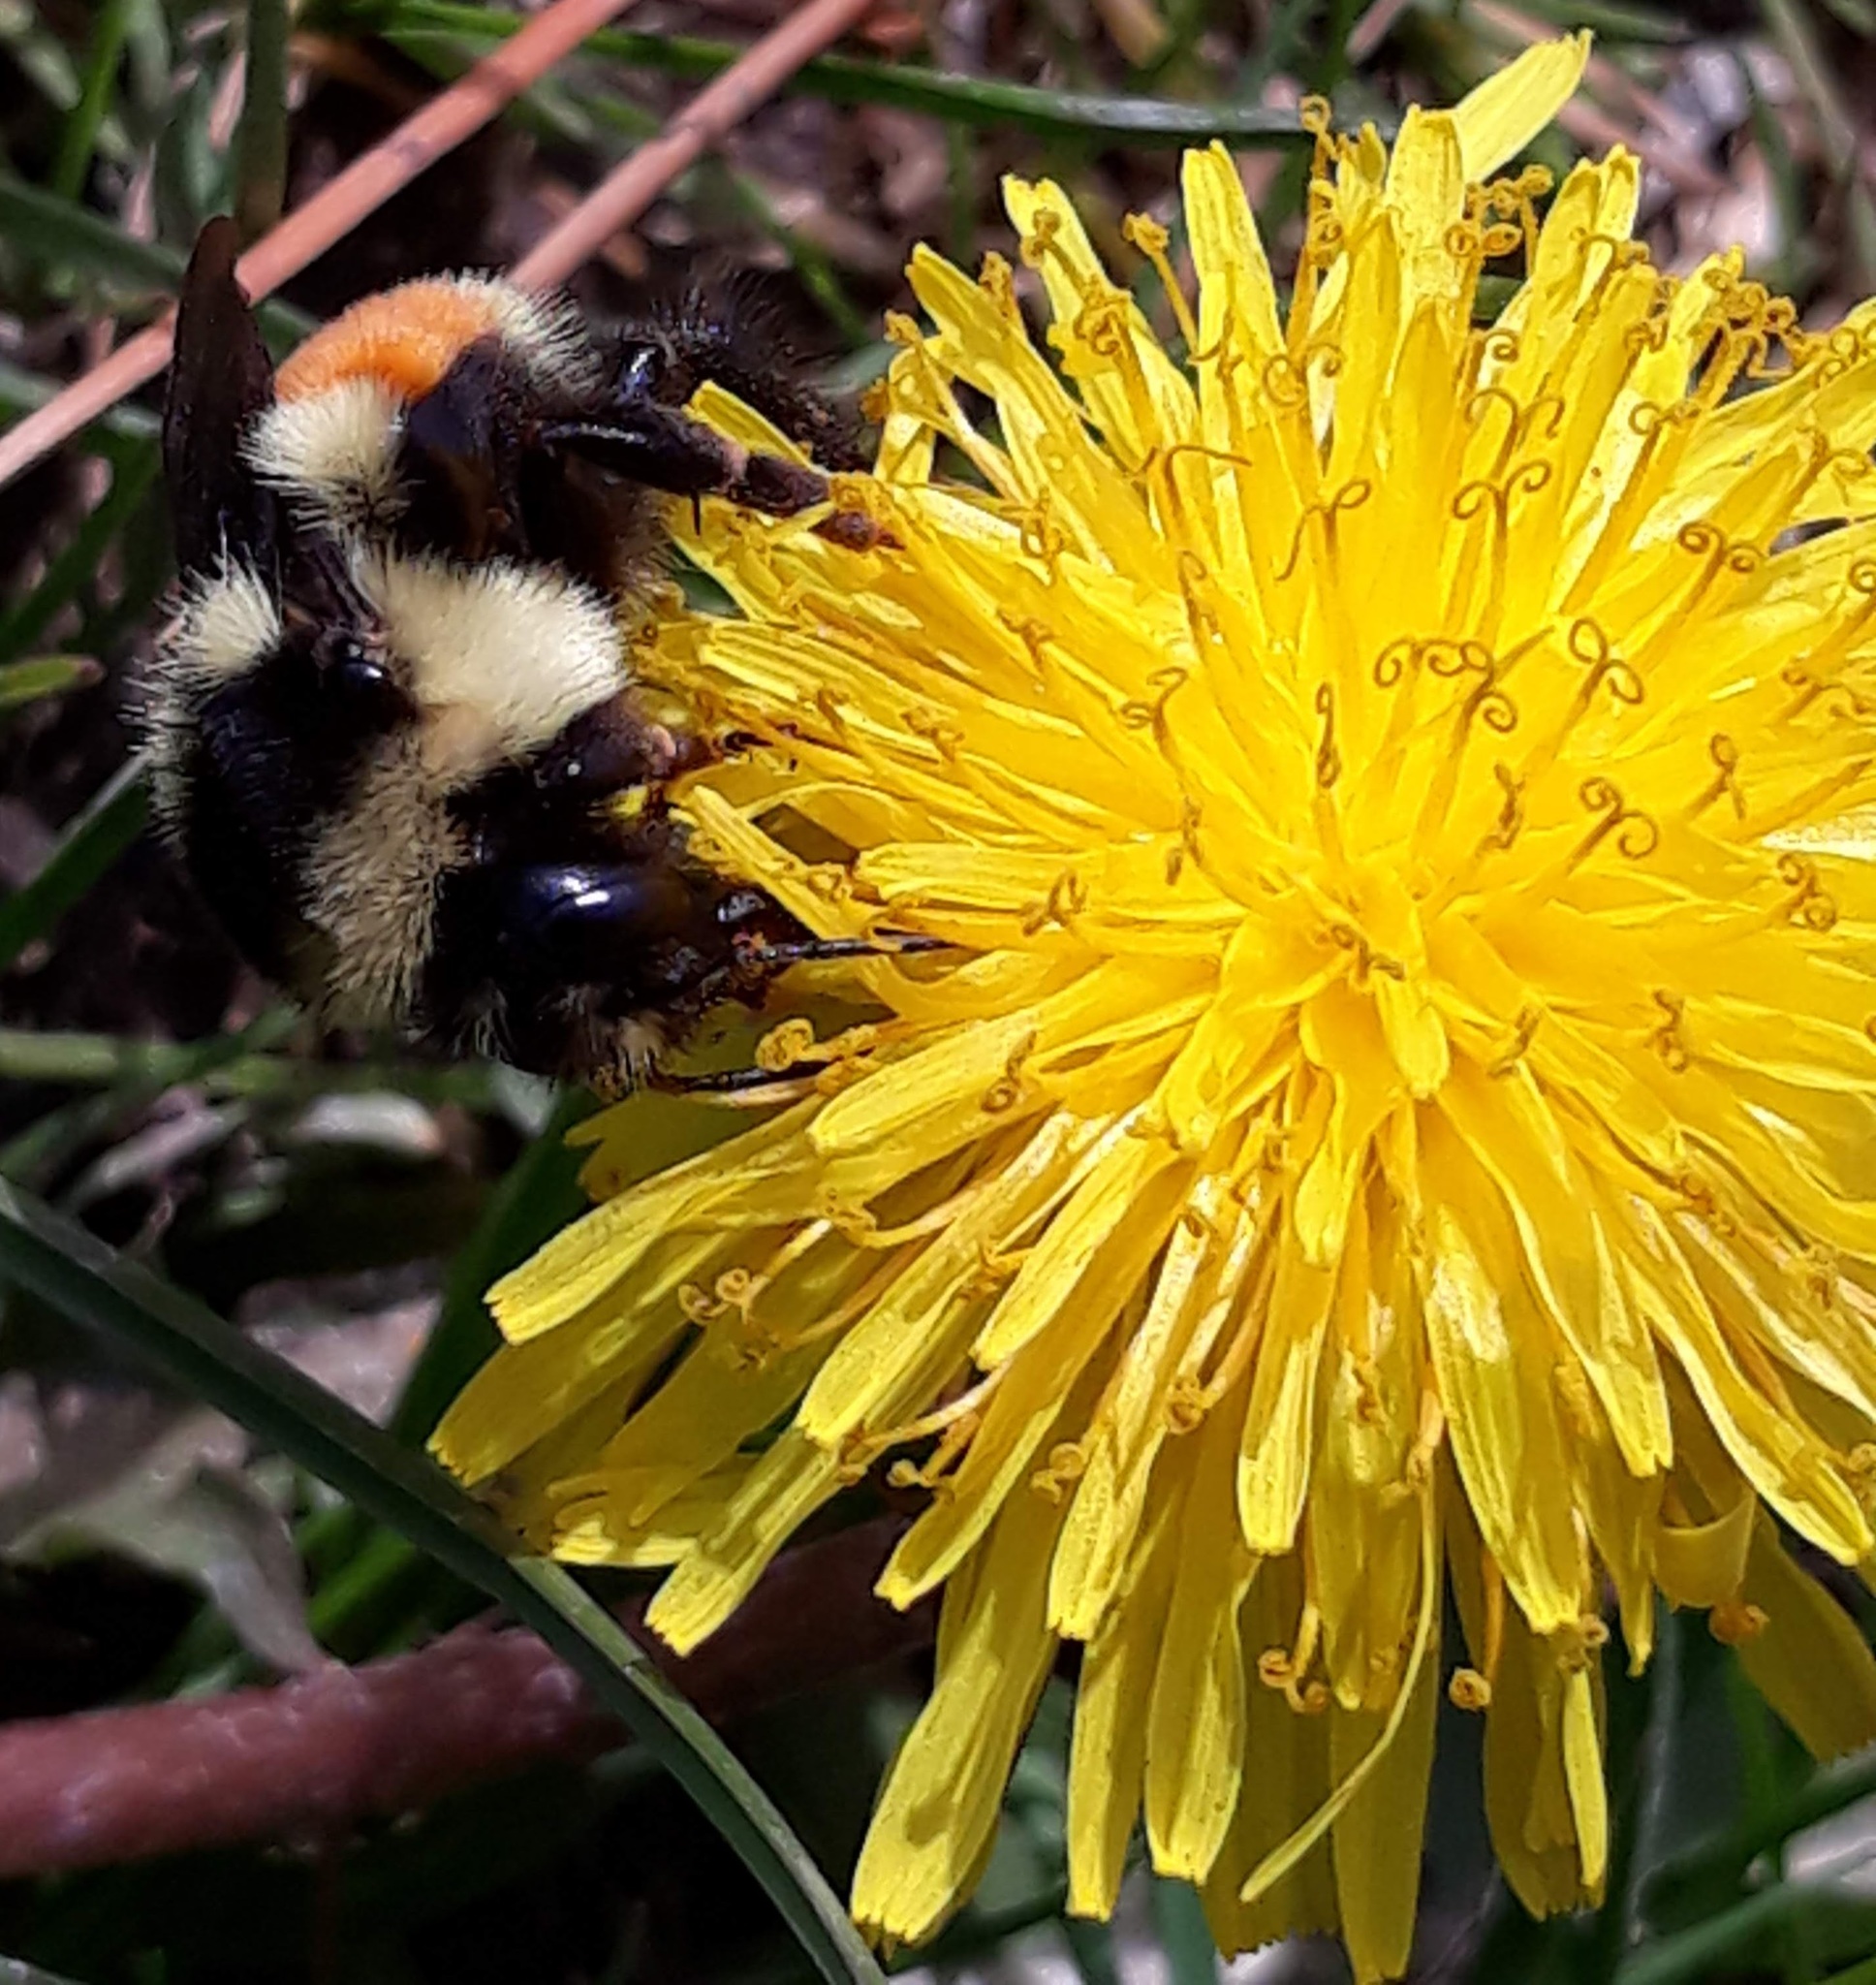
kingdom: Animalia
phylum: Arthropoda
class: Insecta
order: Hymenoptera
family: Apidae
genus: Bombus
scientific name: Bombus ternarius
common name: Tri-colored bumble bee
